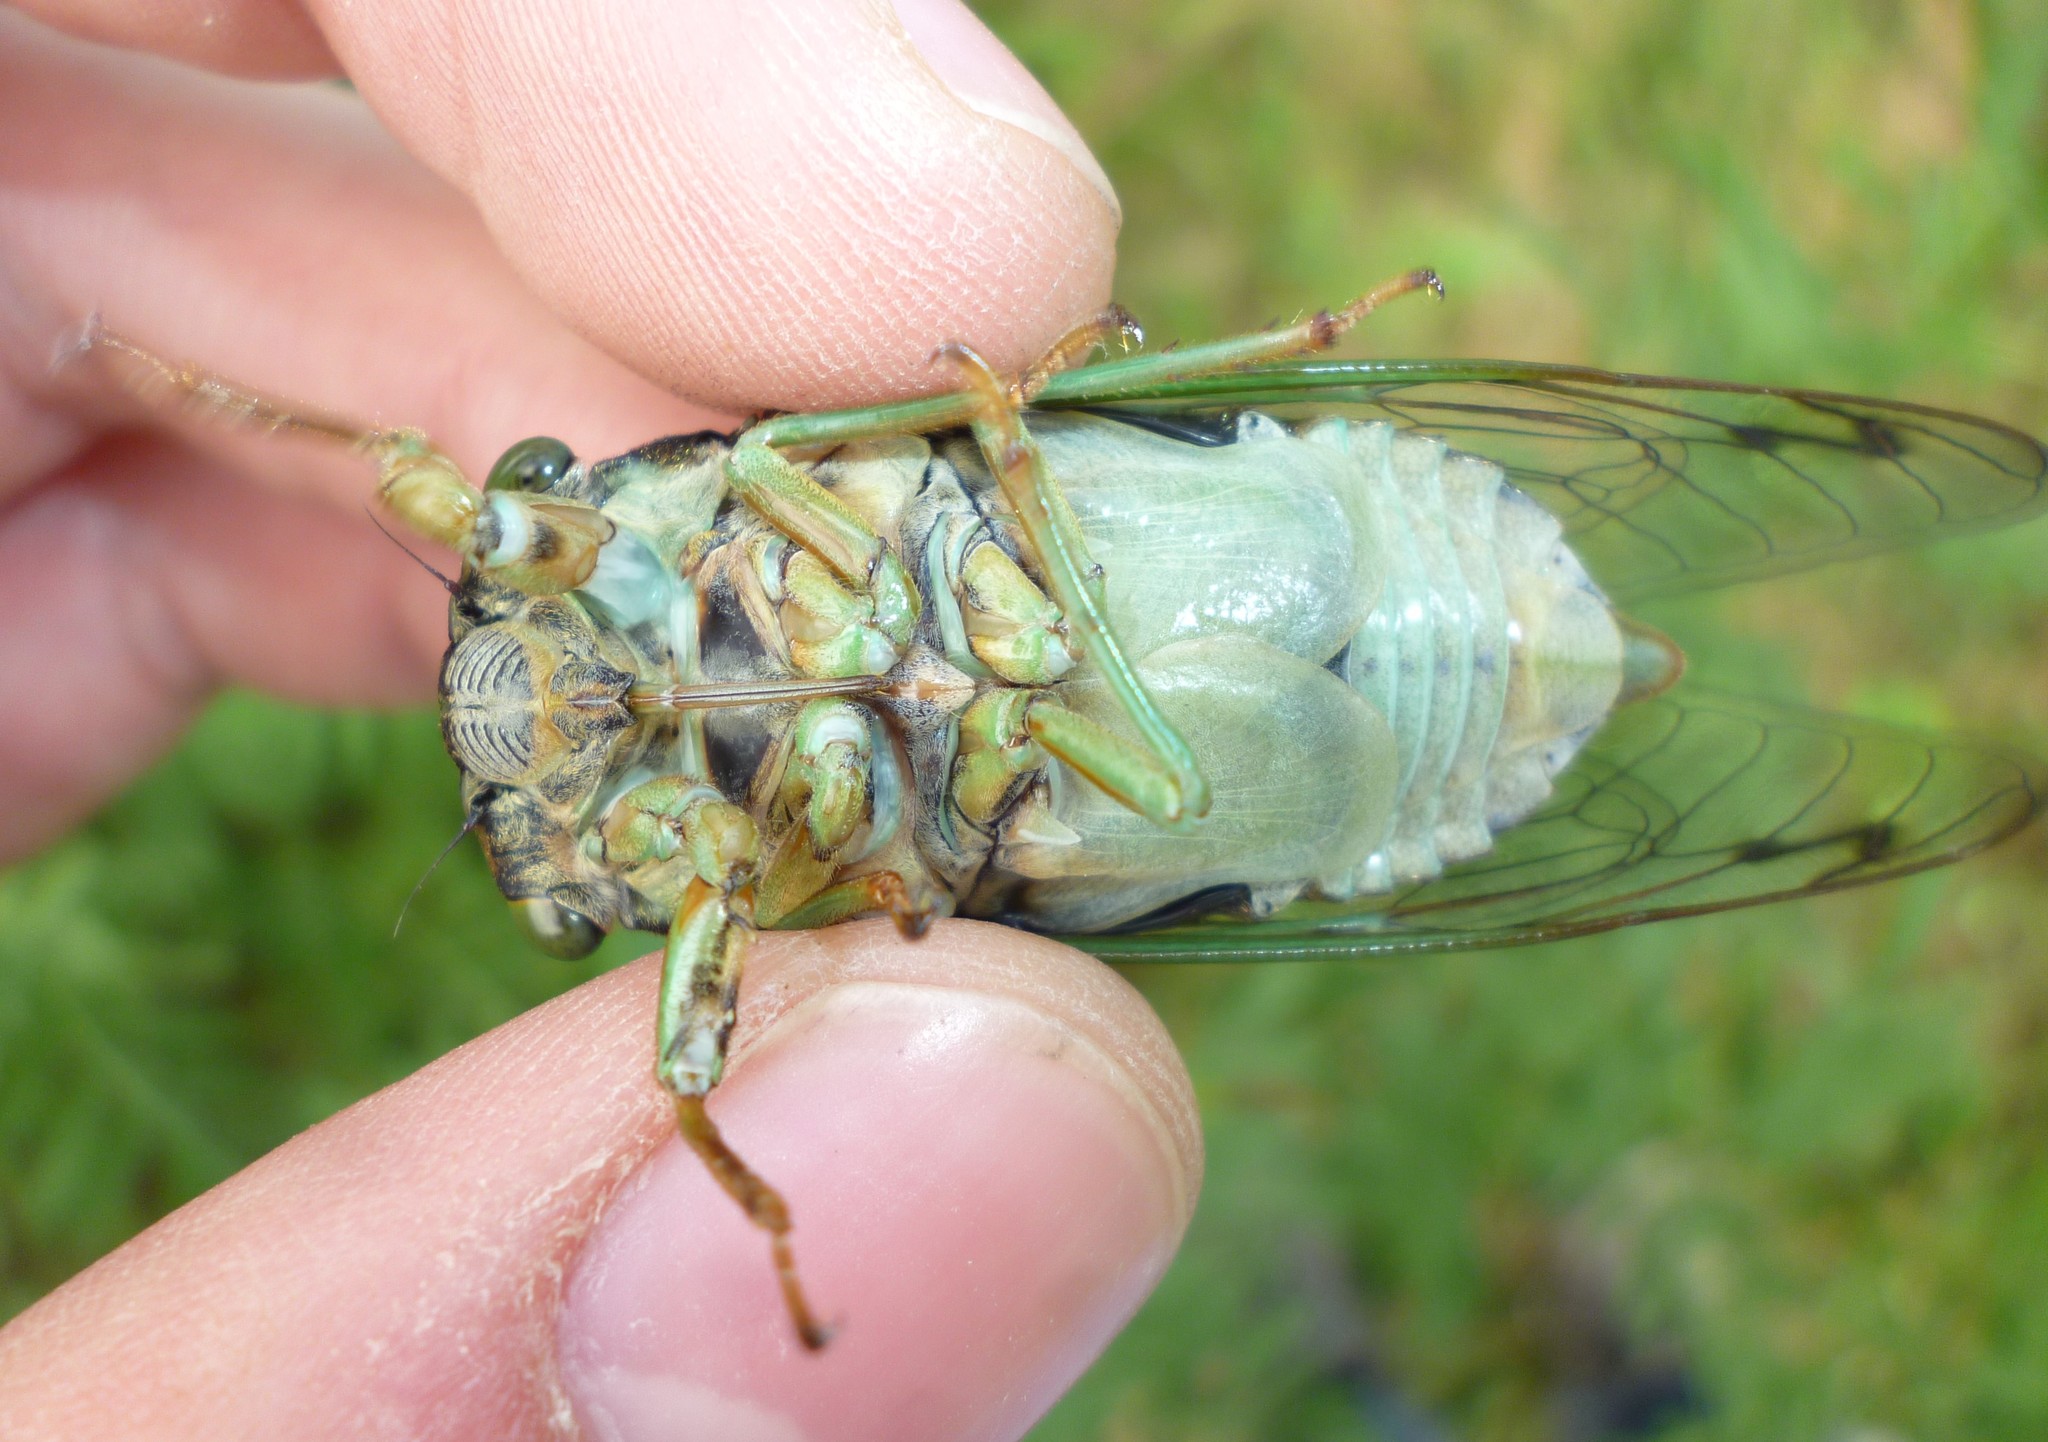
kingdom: Animalia
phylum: Arthropoda
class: Insecta
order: Hemiptera
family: Cicadidae
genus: Neotibicen
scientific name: Neotibicen tibicen
